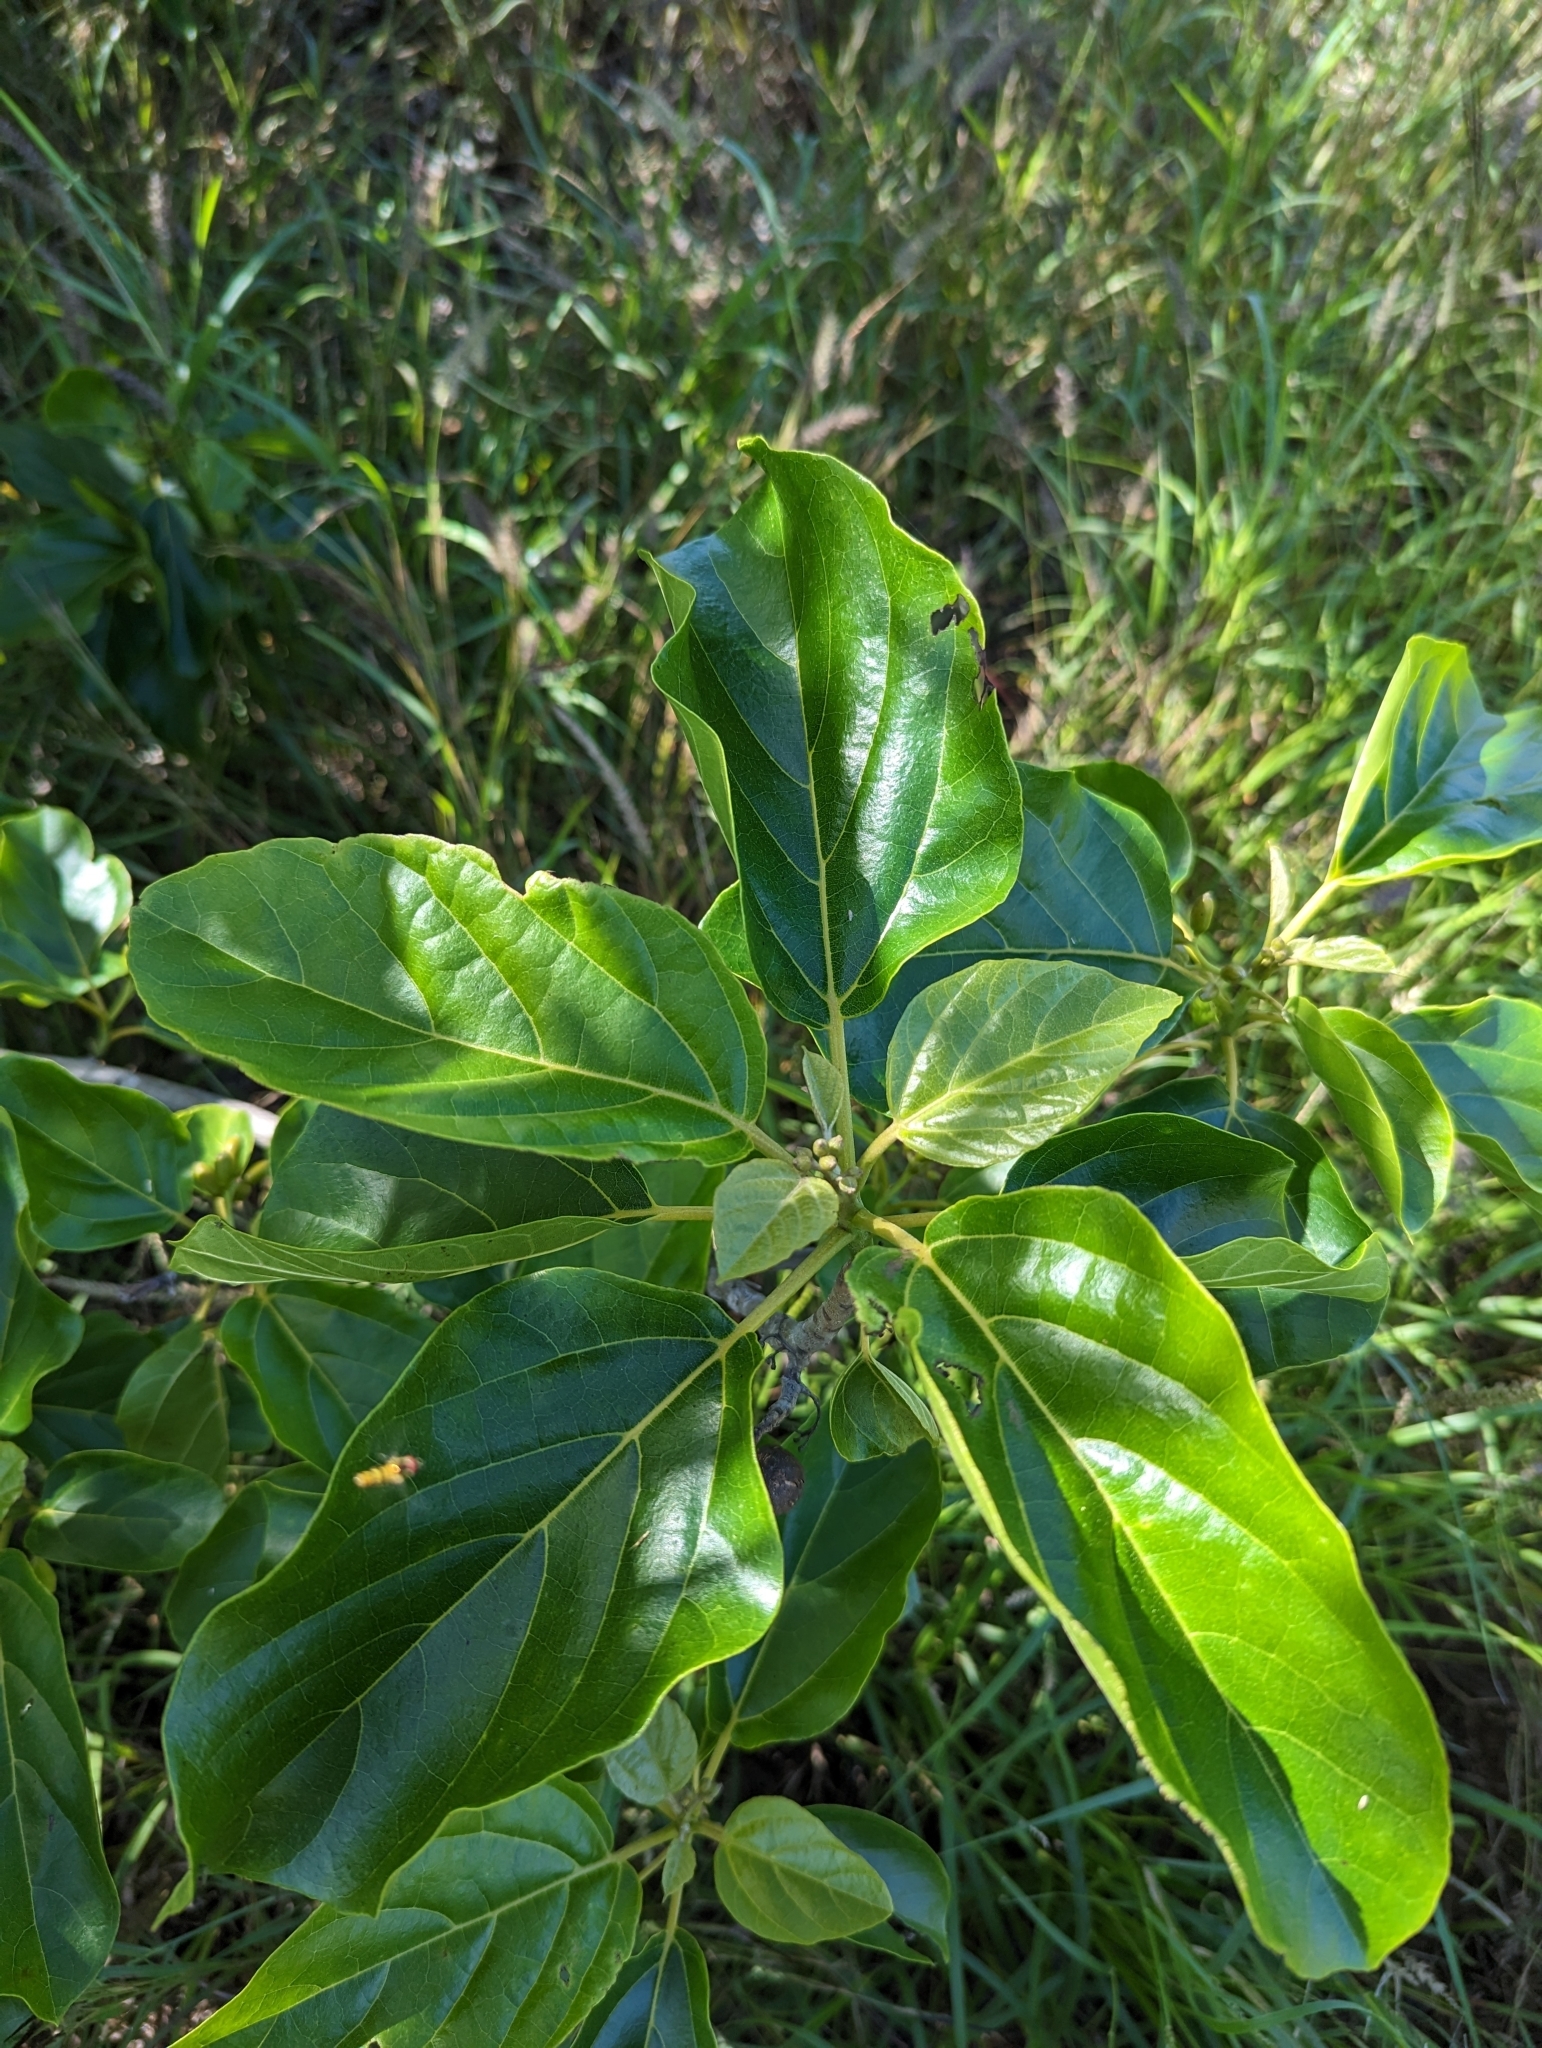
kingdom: Plantae
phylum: Tracheophyta
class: Magnoliopsida
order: Boraginales
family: Cordiaceae
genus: Cordia
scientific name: Cordia subcordata
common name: Mareer
